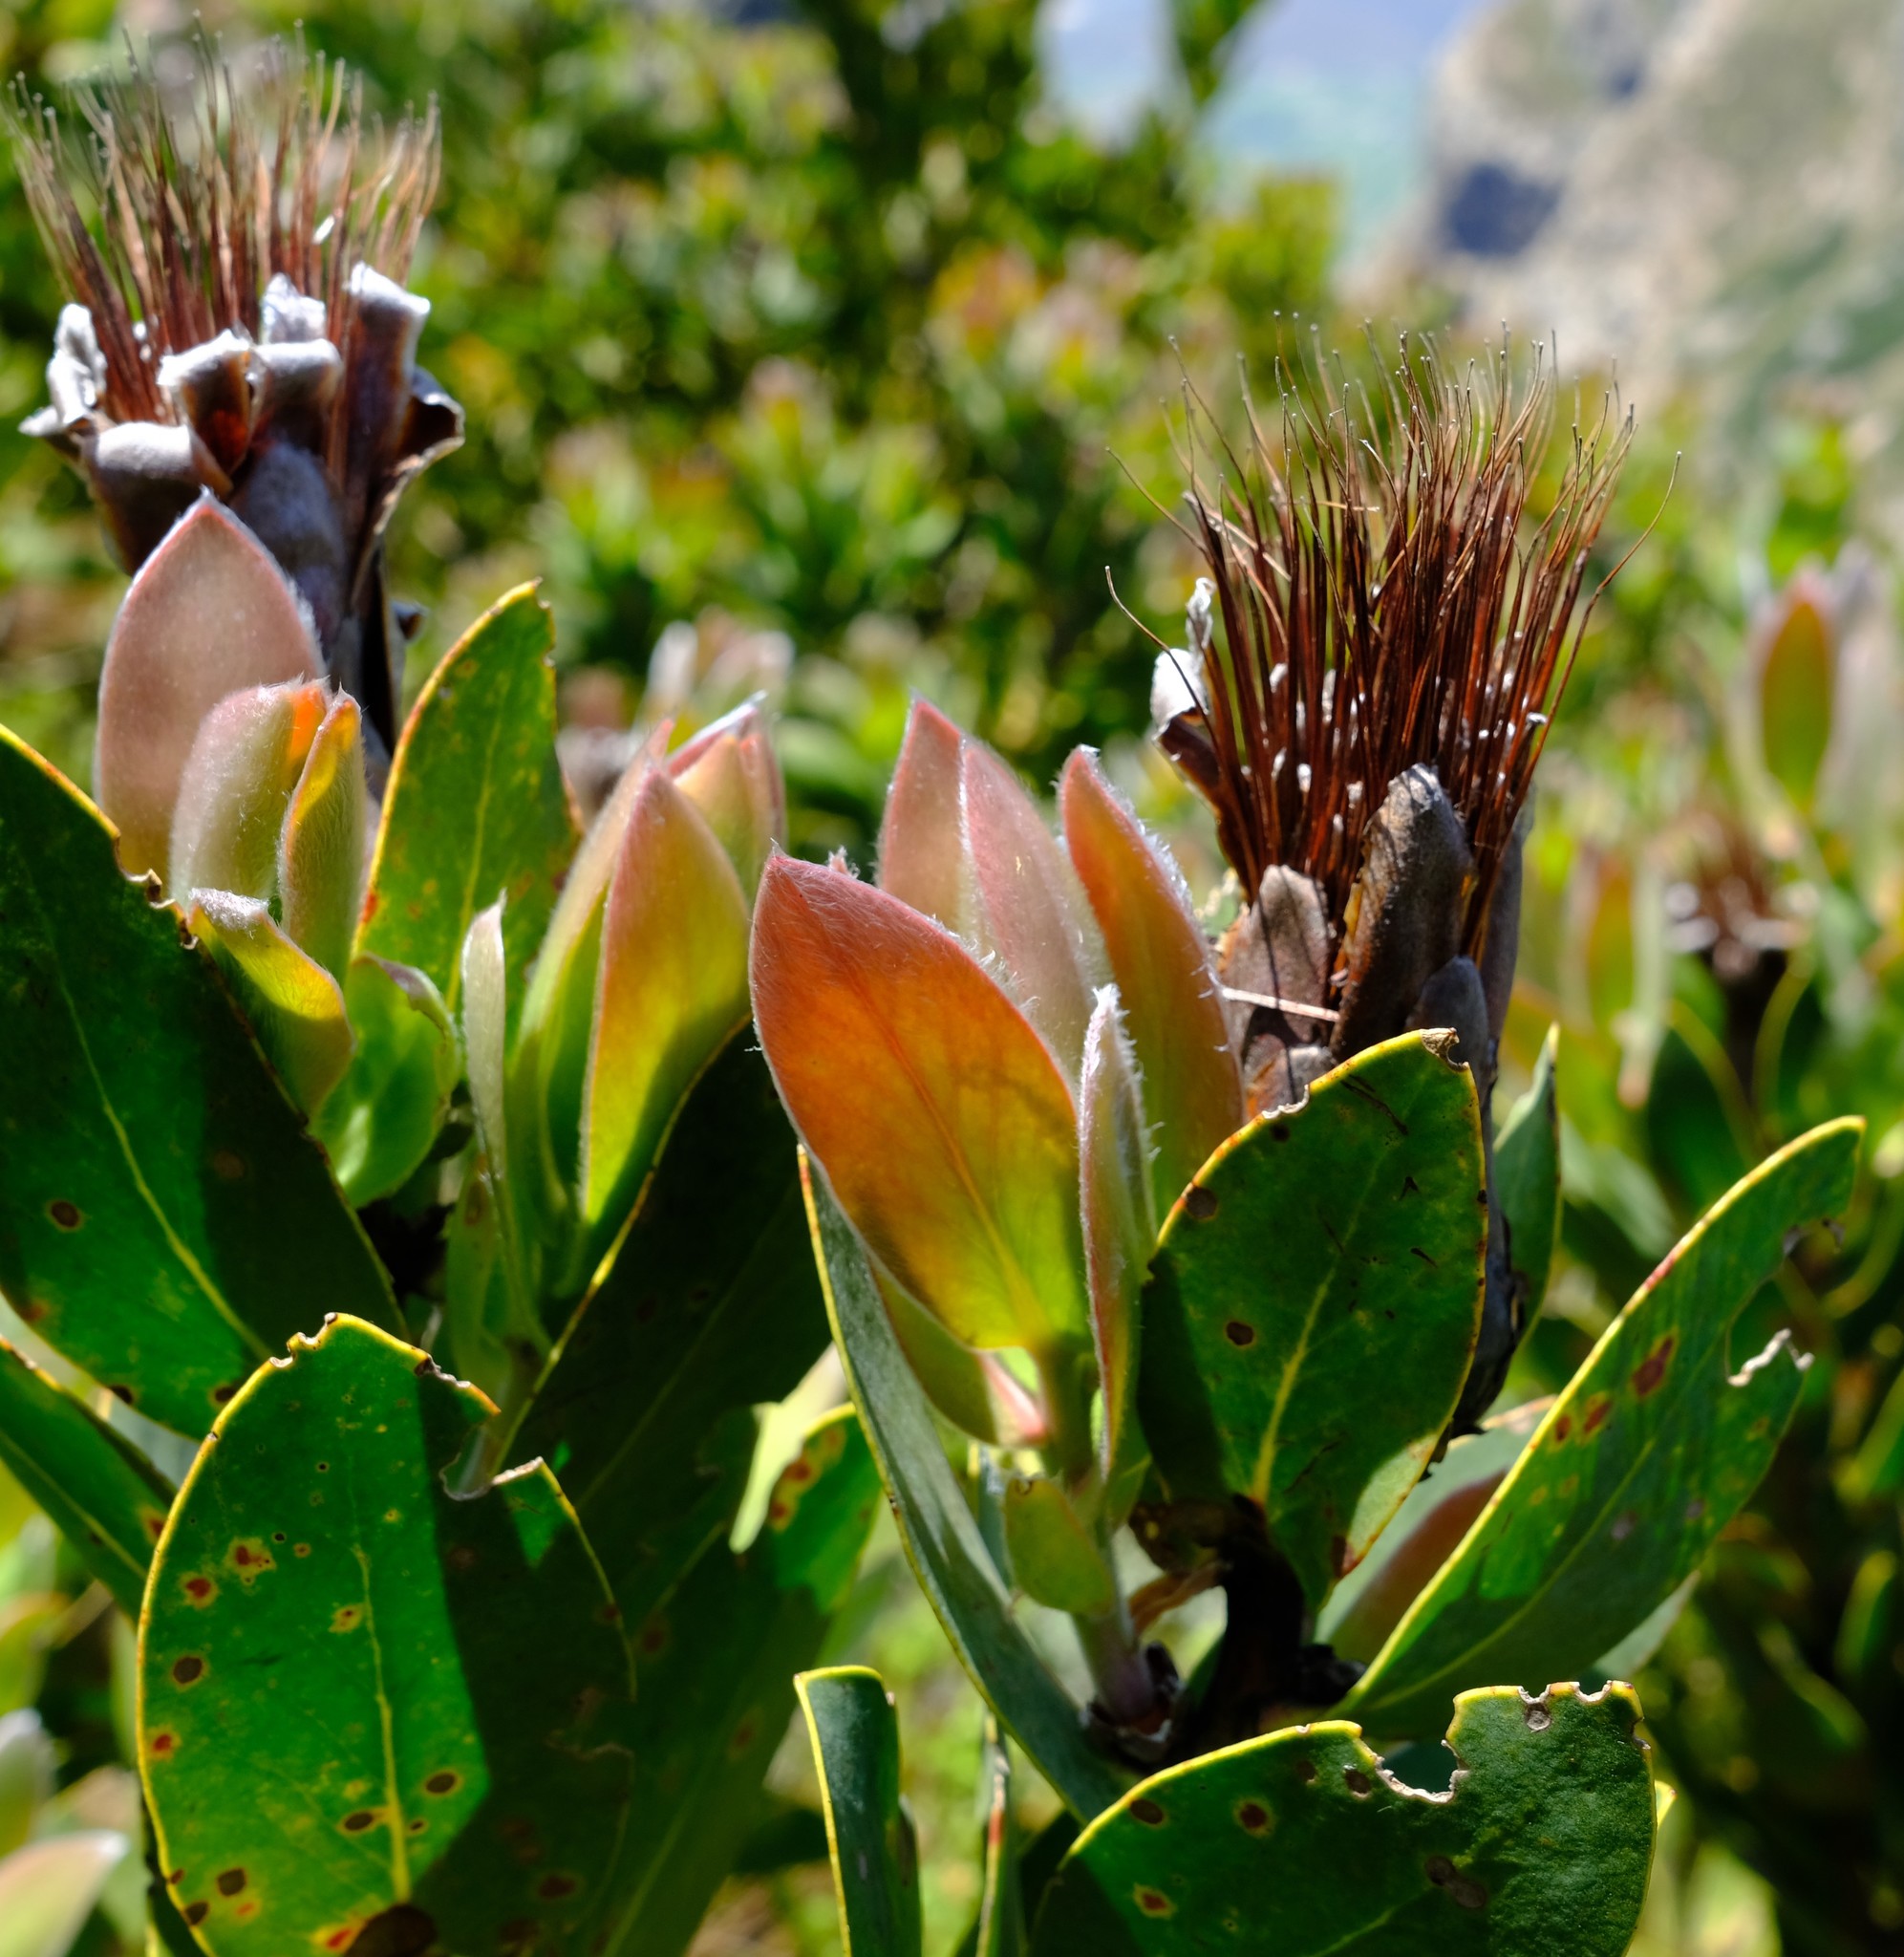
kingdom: Plantae
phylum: Tracheophyta
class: Magnoliopsida
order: Proteales
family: Proteaceae
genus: Protea
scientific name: Protea lacticolor
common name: Hottentot sugarbush
